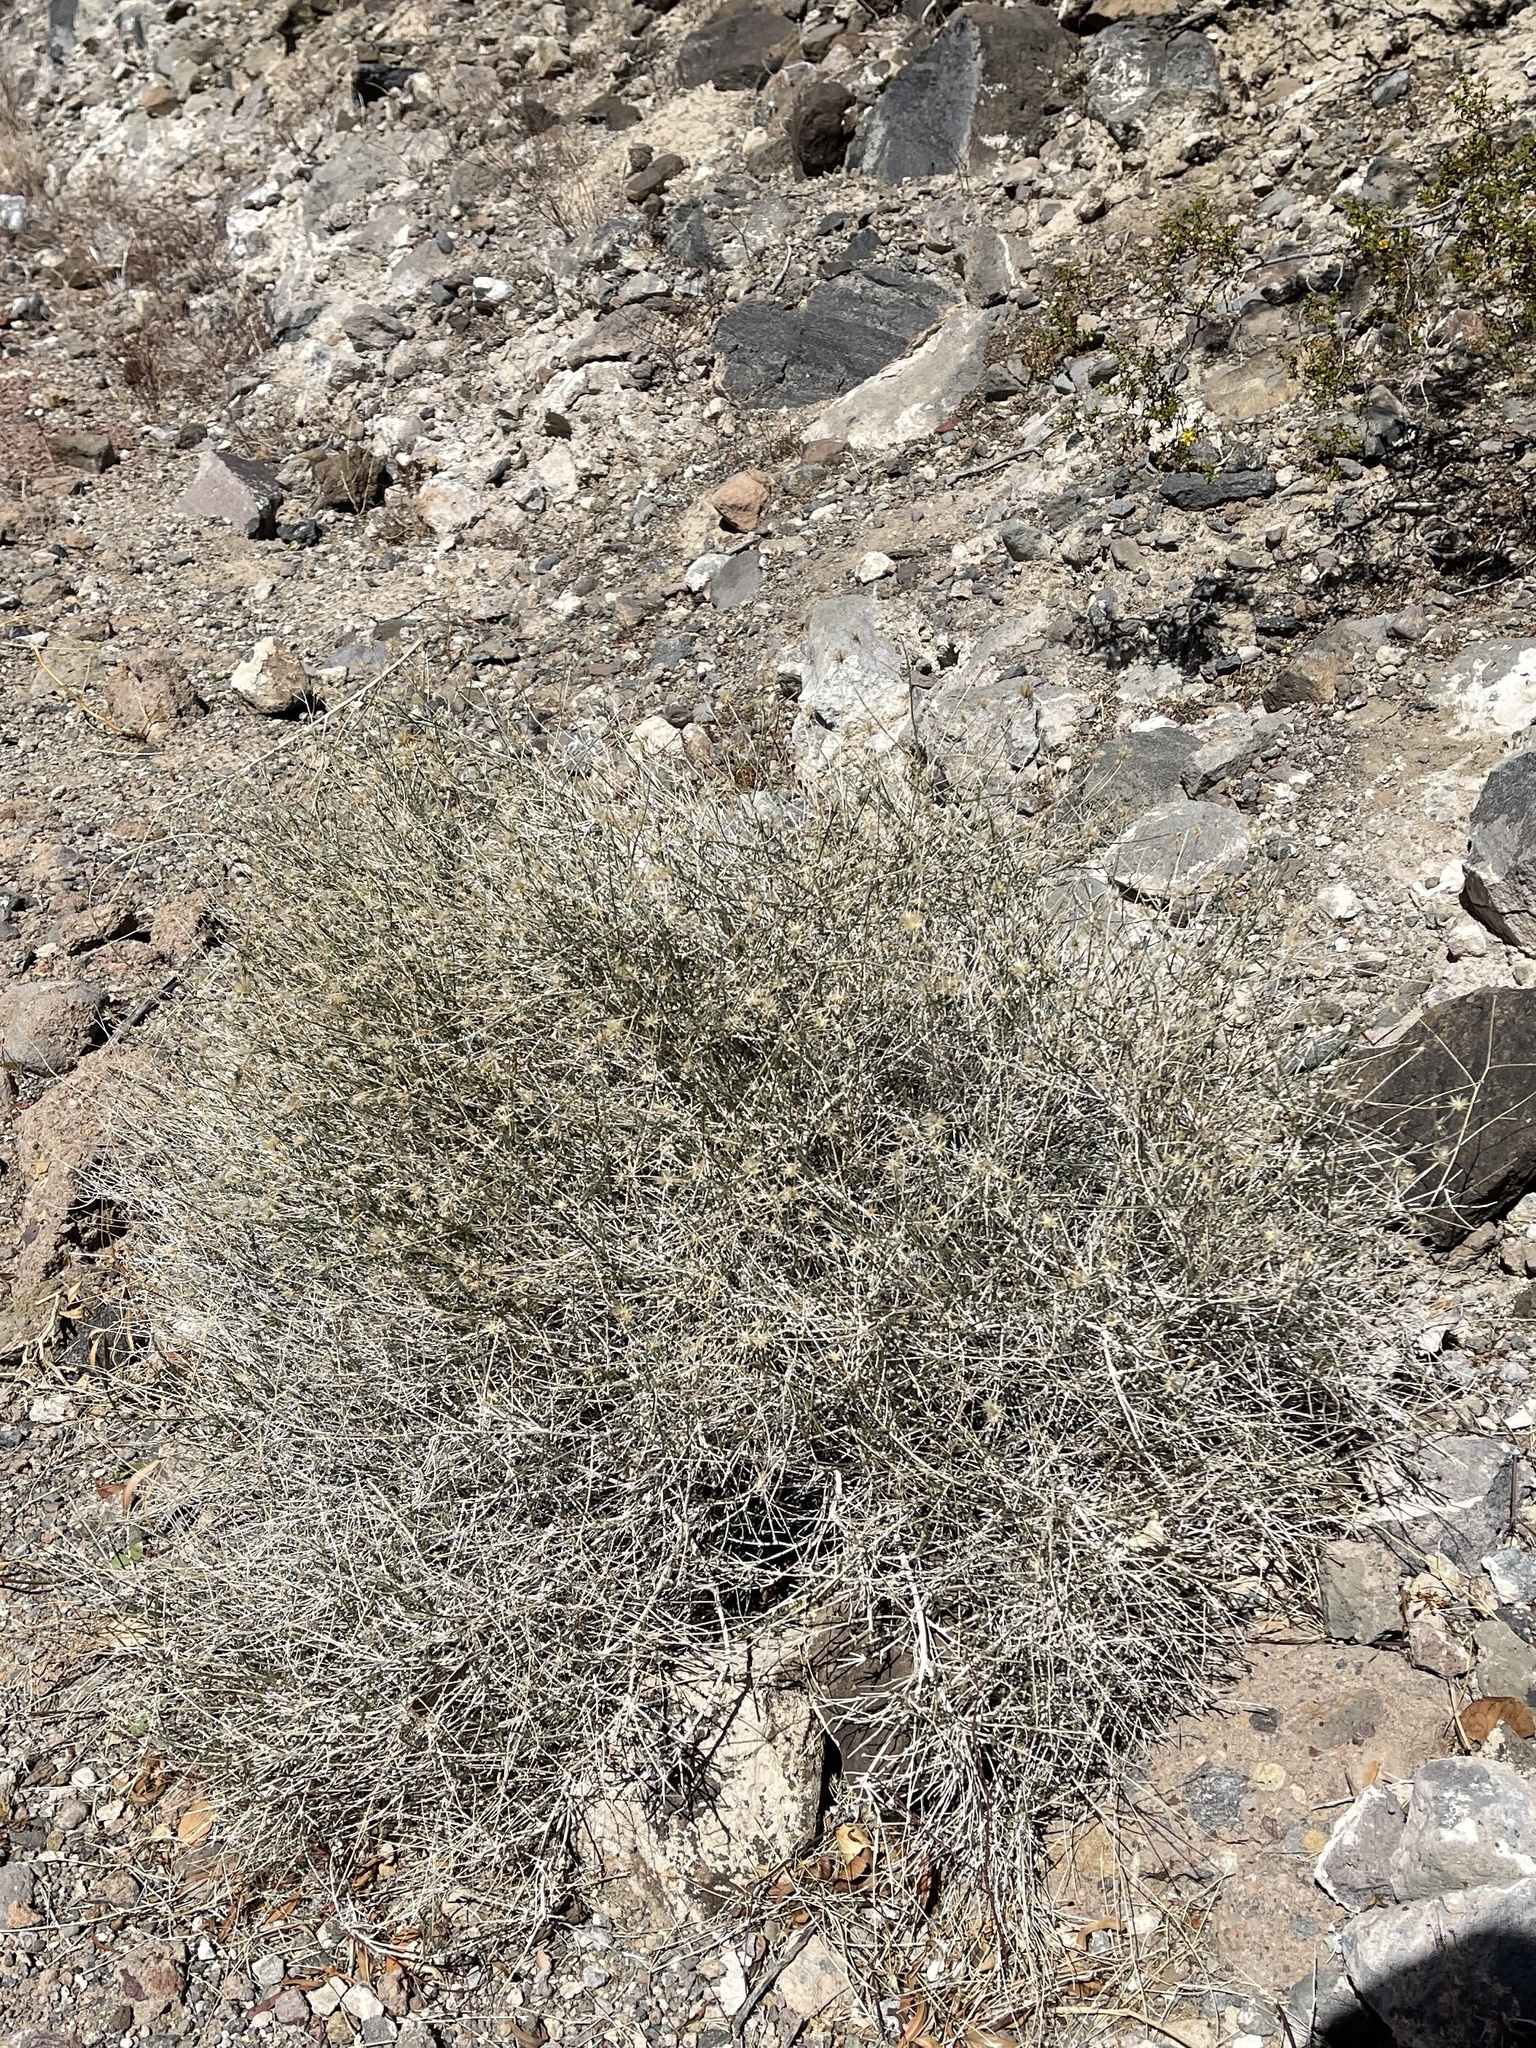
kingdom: Plantae
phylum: Tracheophyta
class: Magnoliopsida
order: Asterales
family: Asteraceae
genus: Bebbia
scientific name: Bebbia juncea
